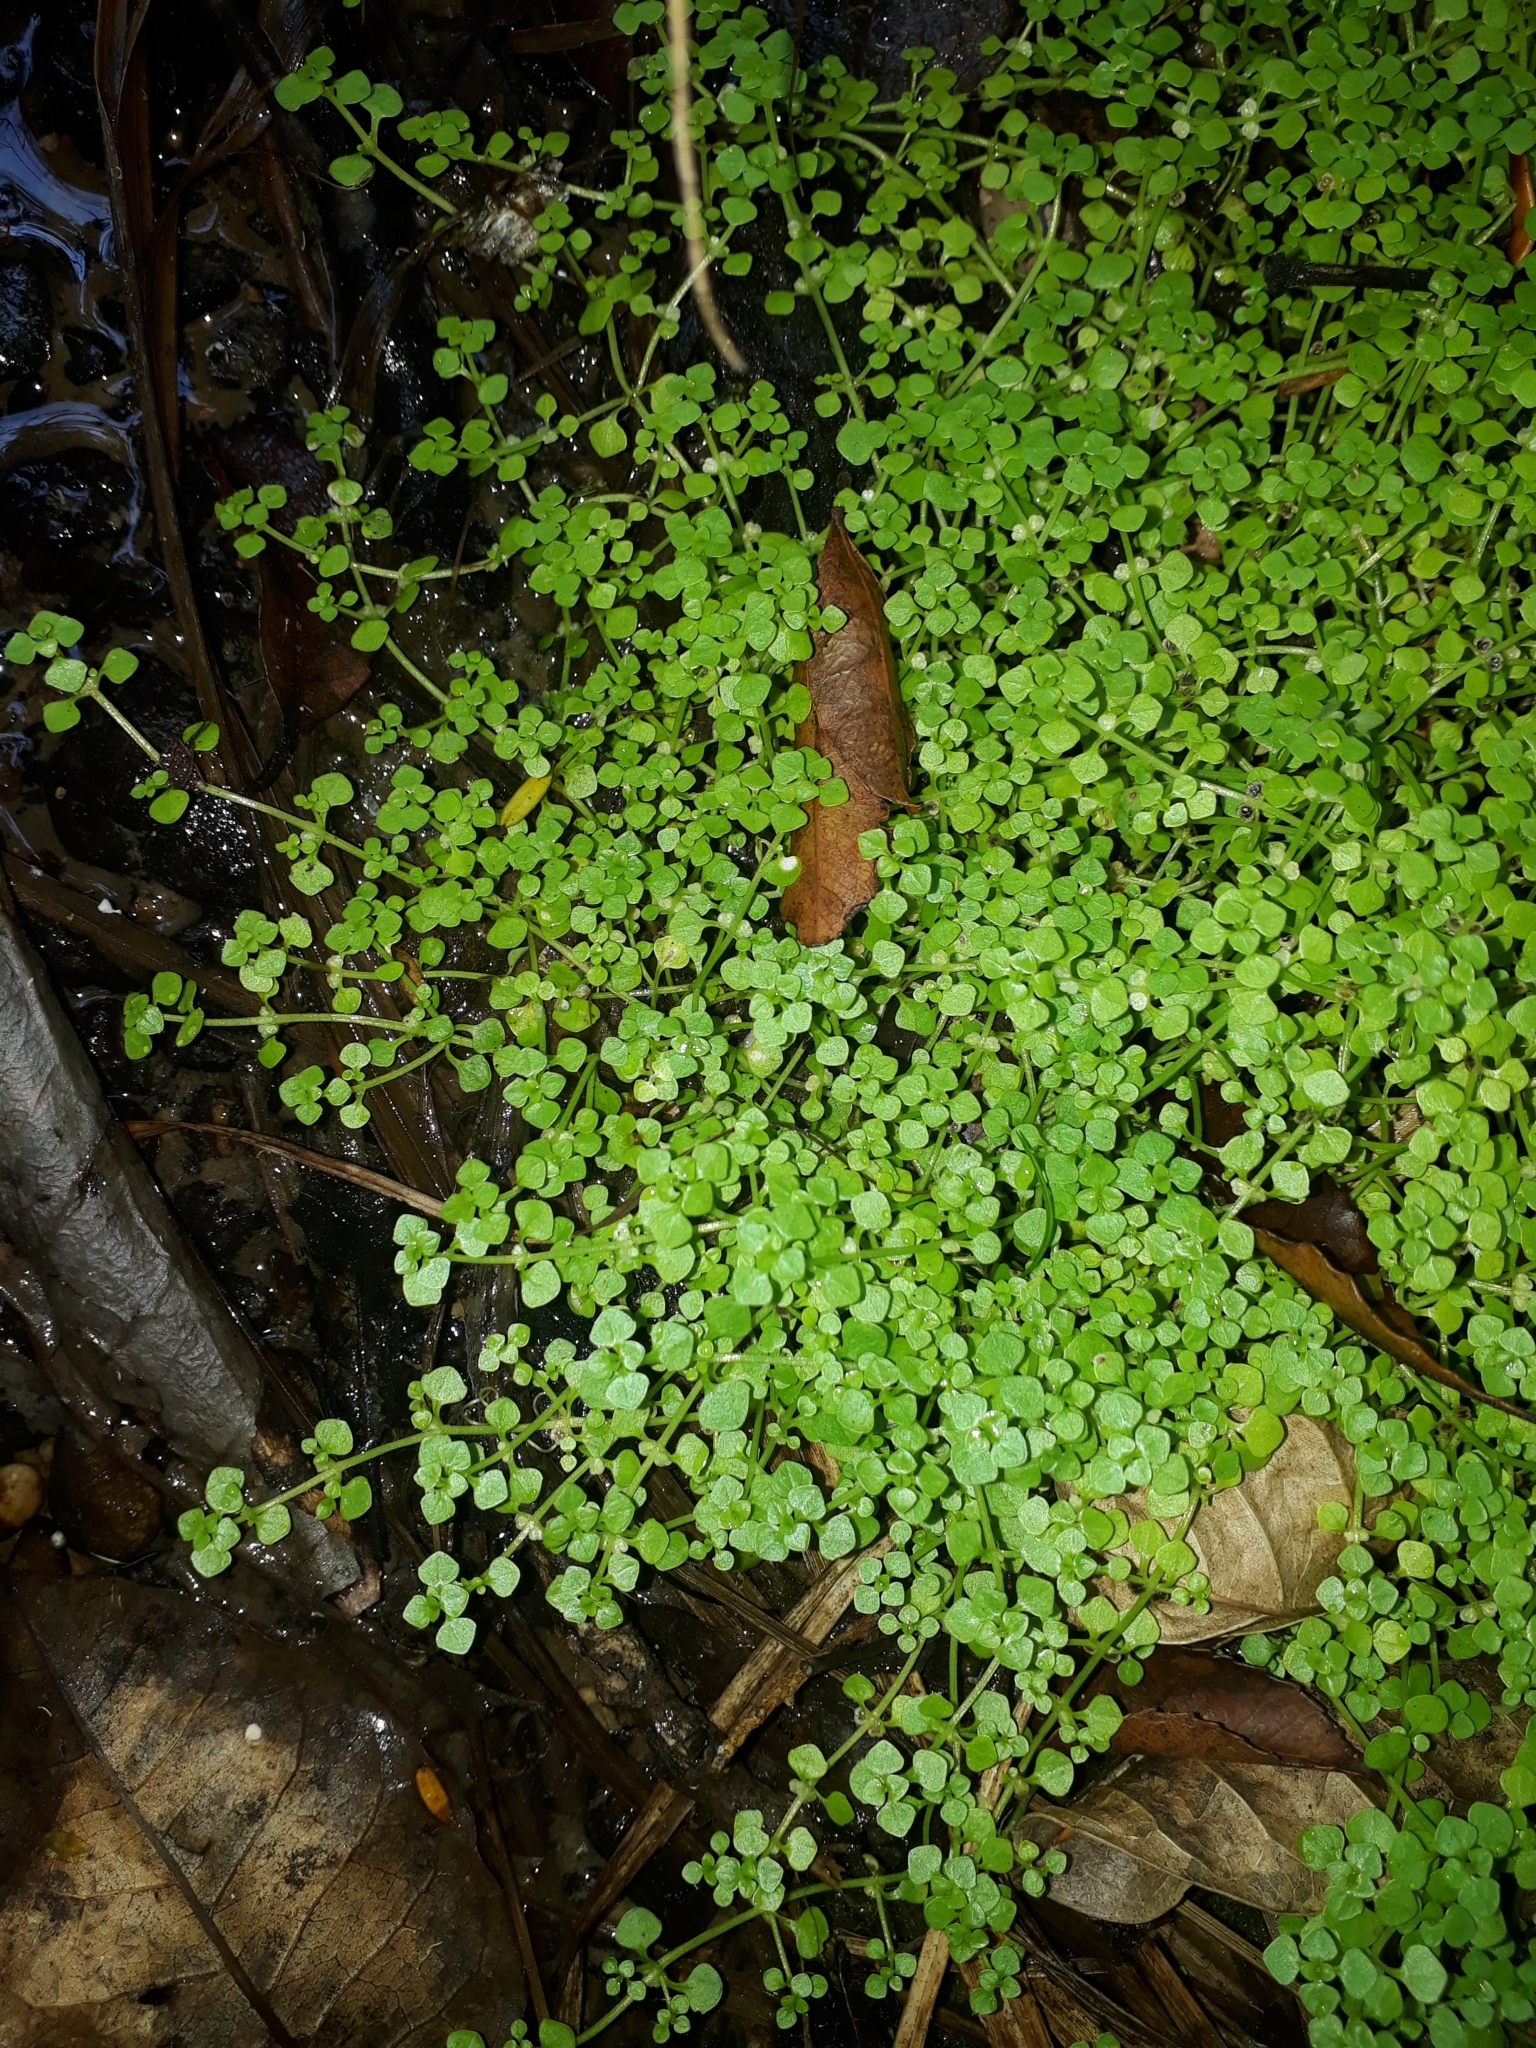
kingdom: Plantae
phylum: Tracheophyta
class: Magnoliopsida
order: Lamiales
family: Plantaginaceae
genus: Callitriche
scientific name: Callitriche muelleri
